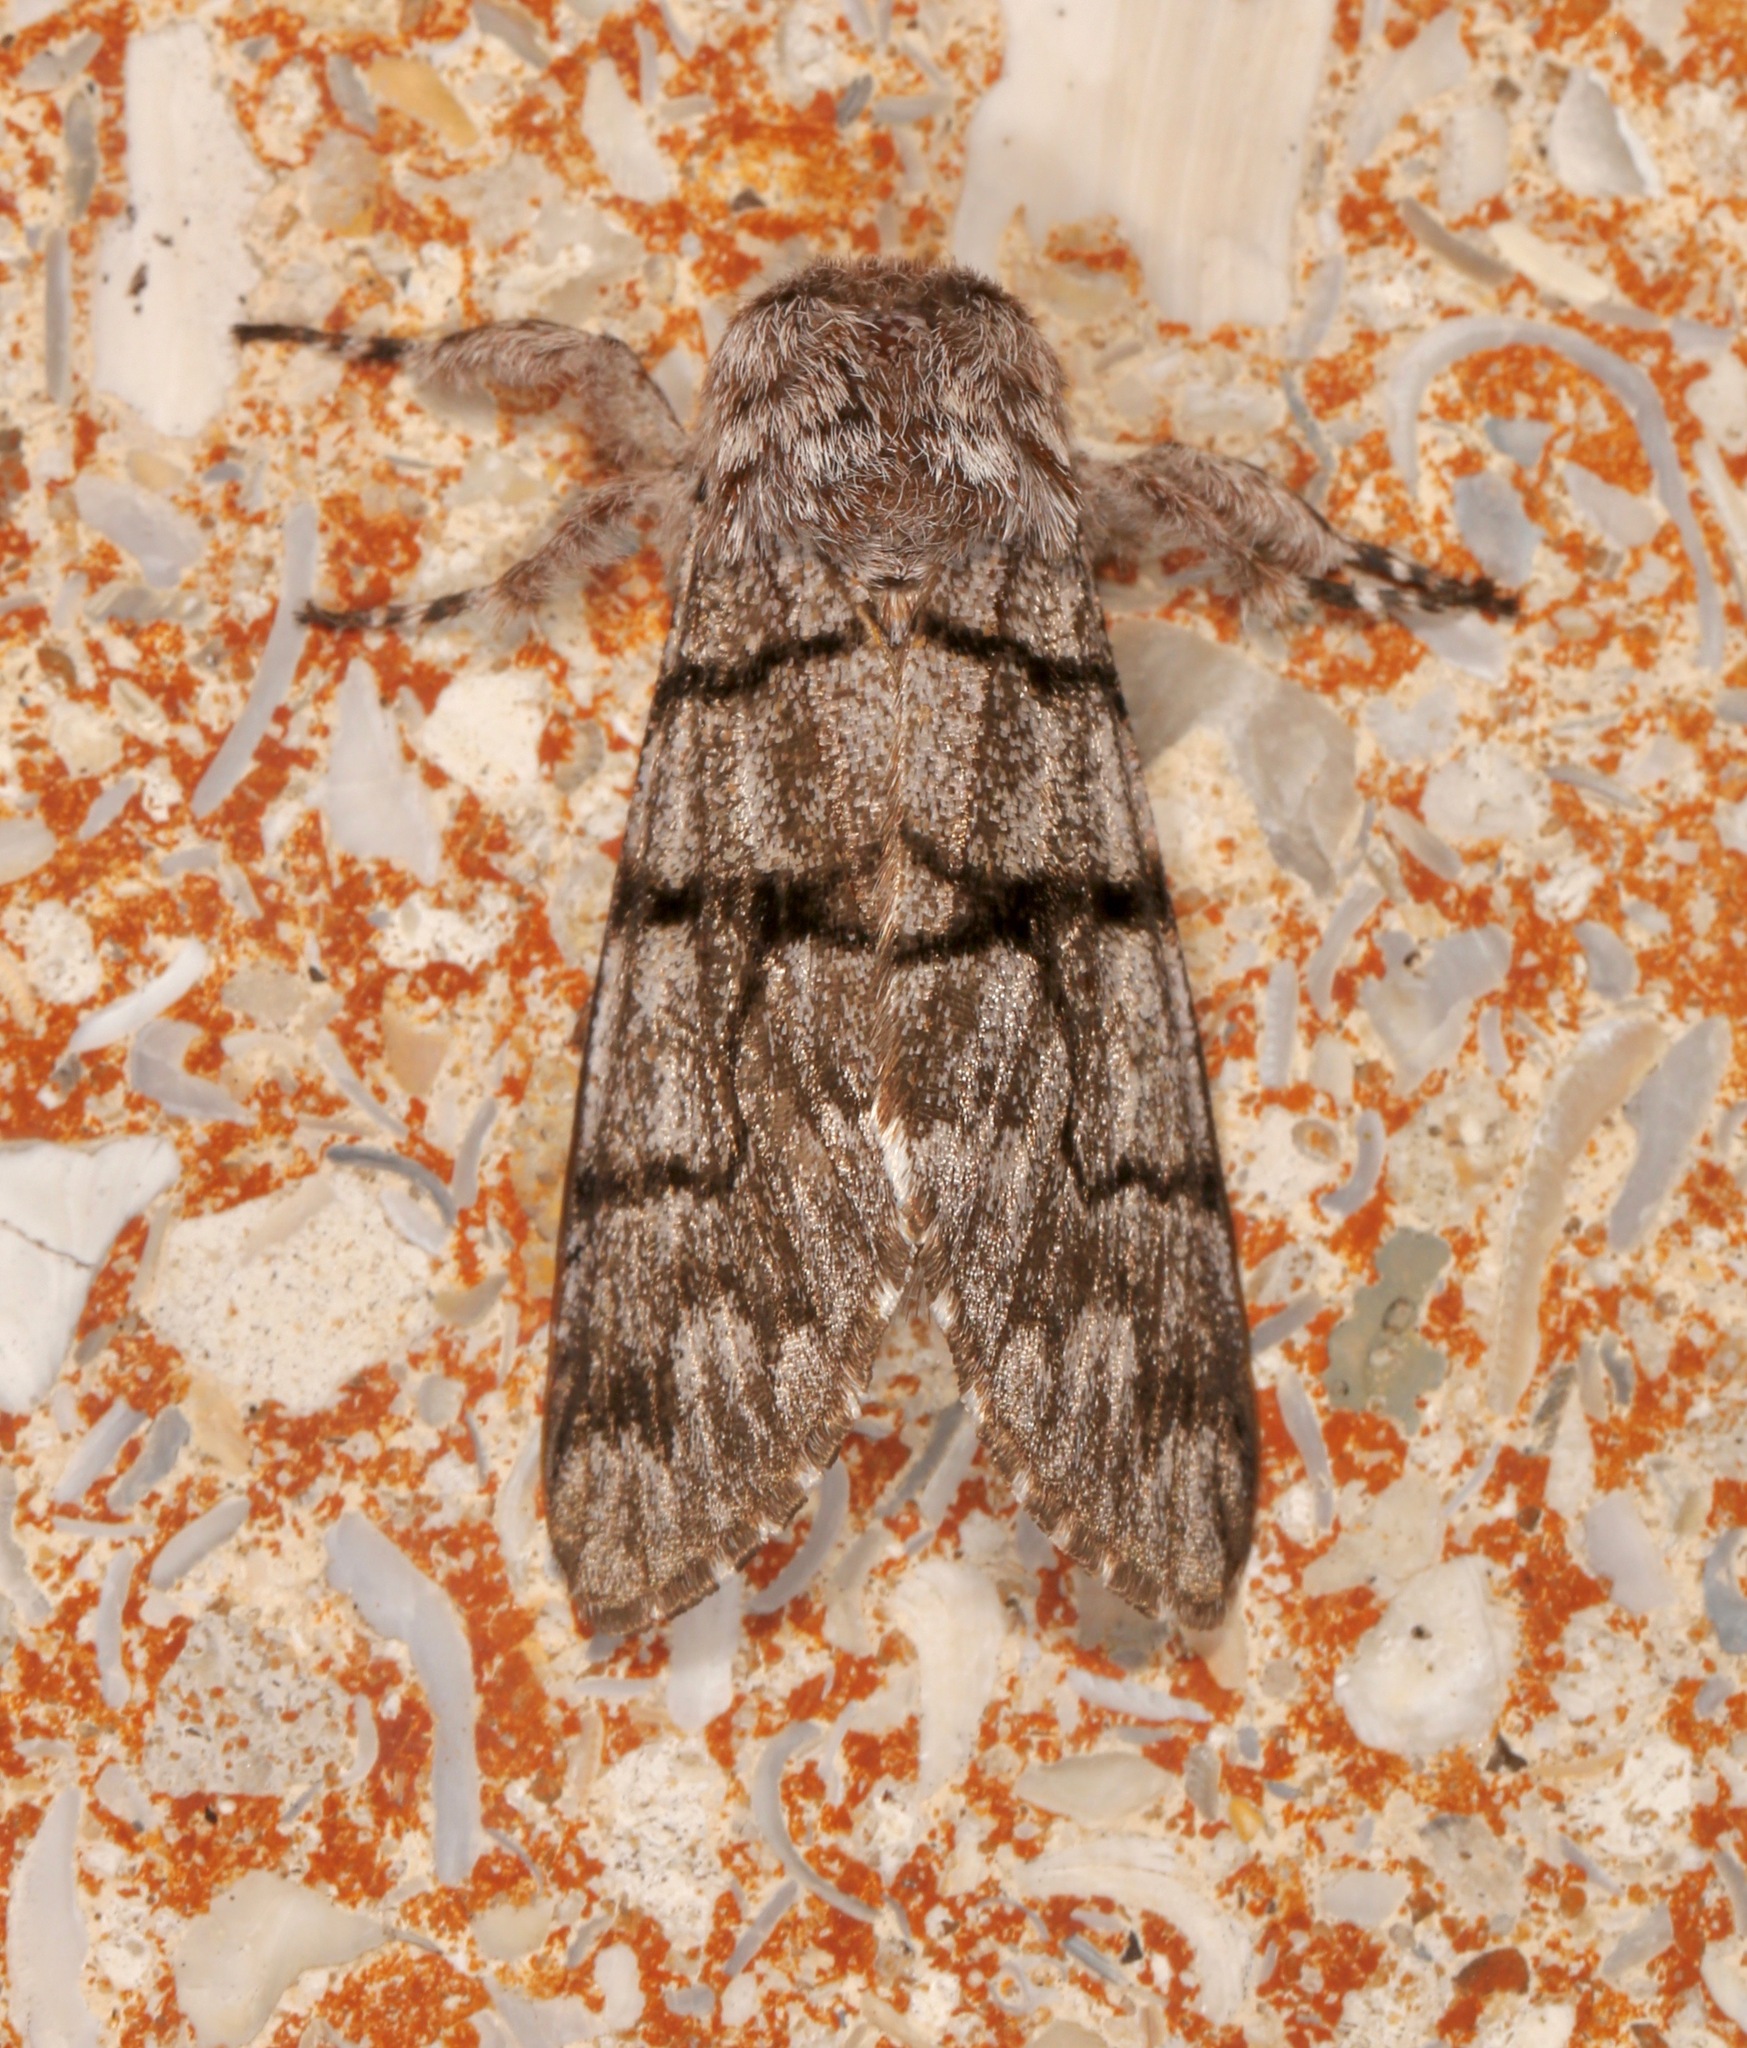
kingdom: Animalia
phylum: Arthropoda
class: Insecta
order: Lepidoptera
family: Noctuidae
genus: Panthea
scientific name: Panthea furcilla
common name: Eastern panthea moth
